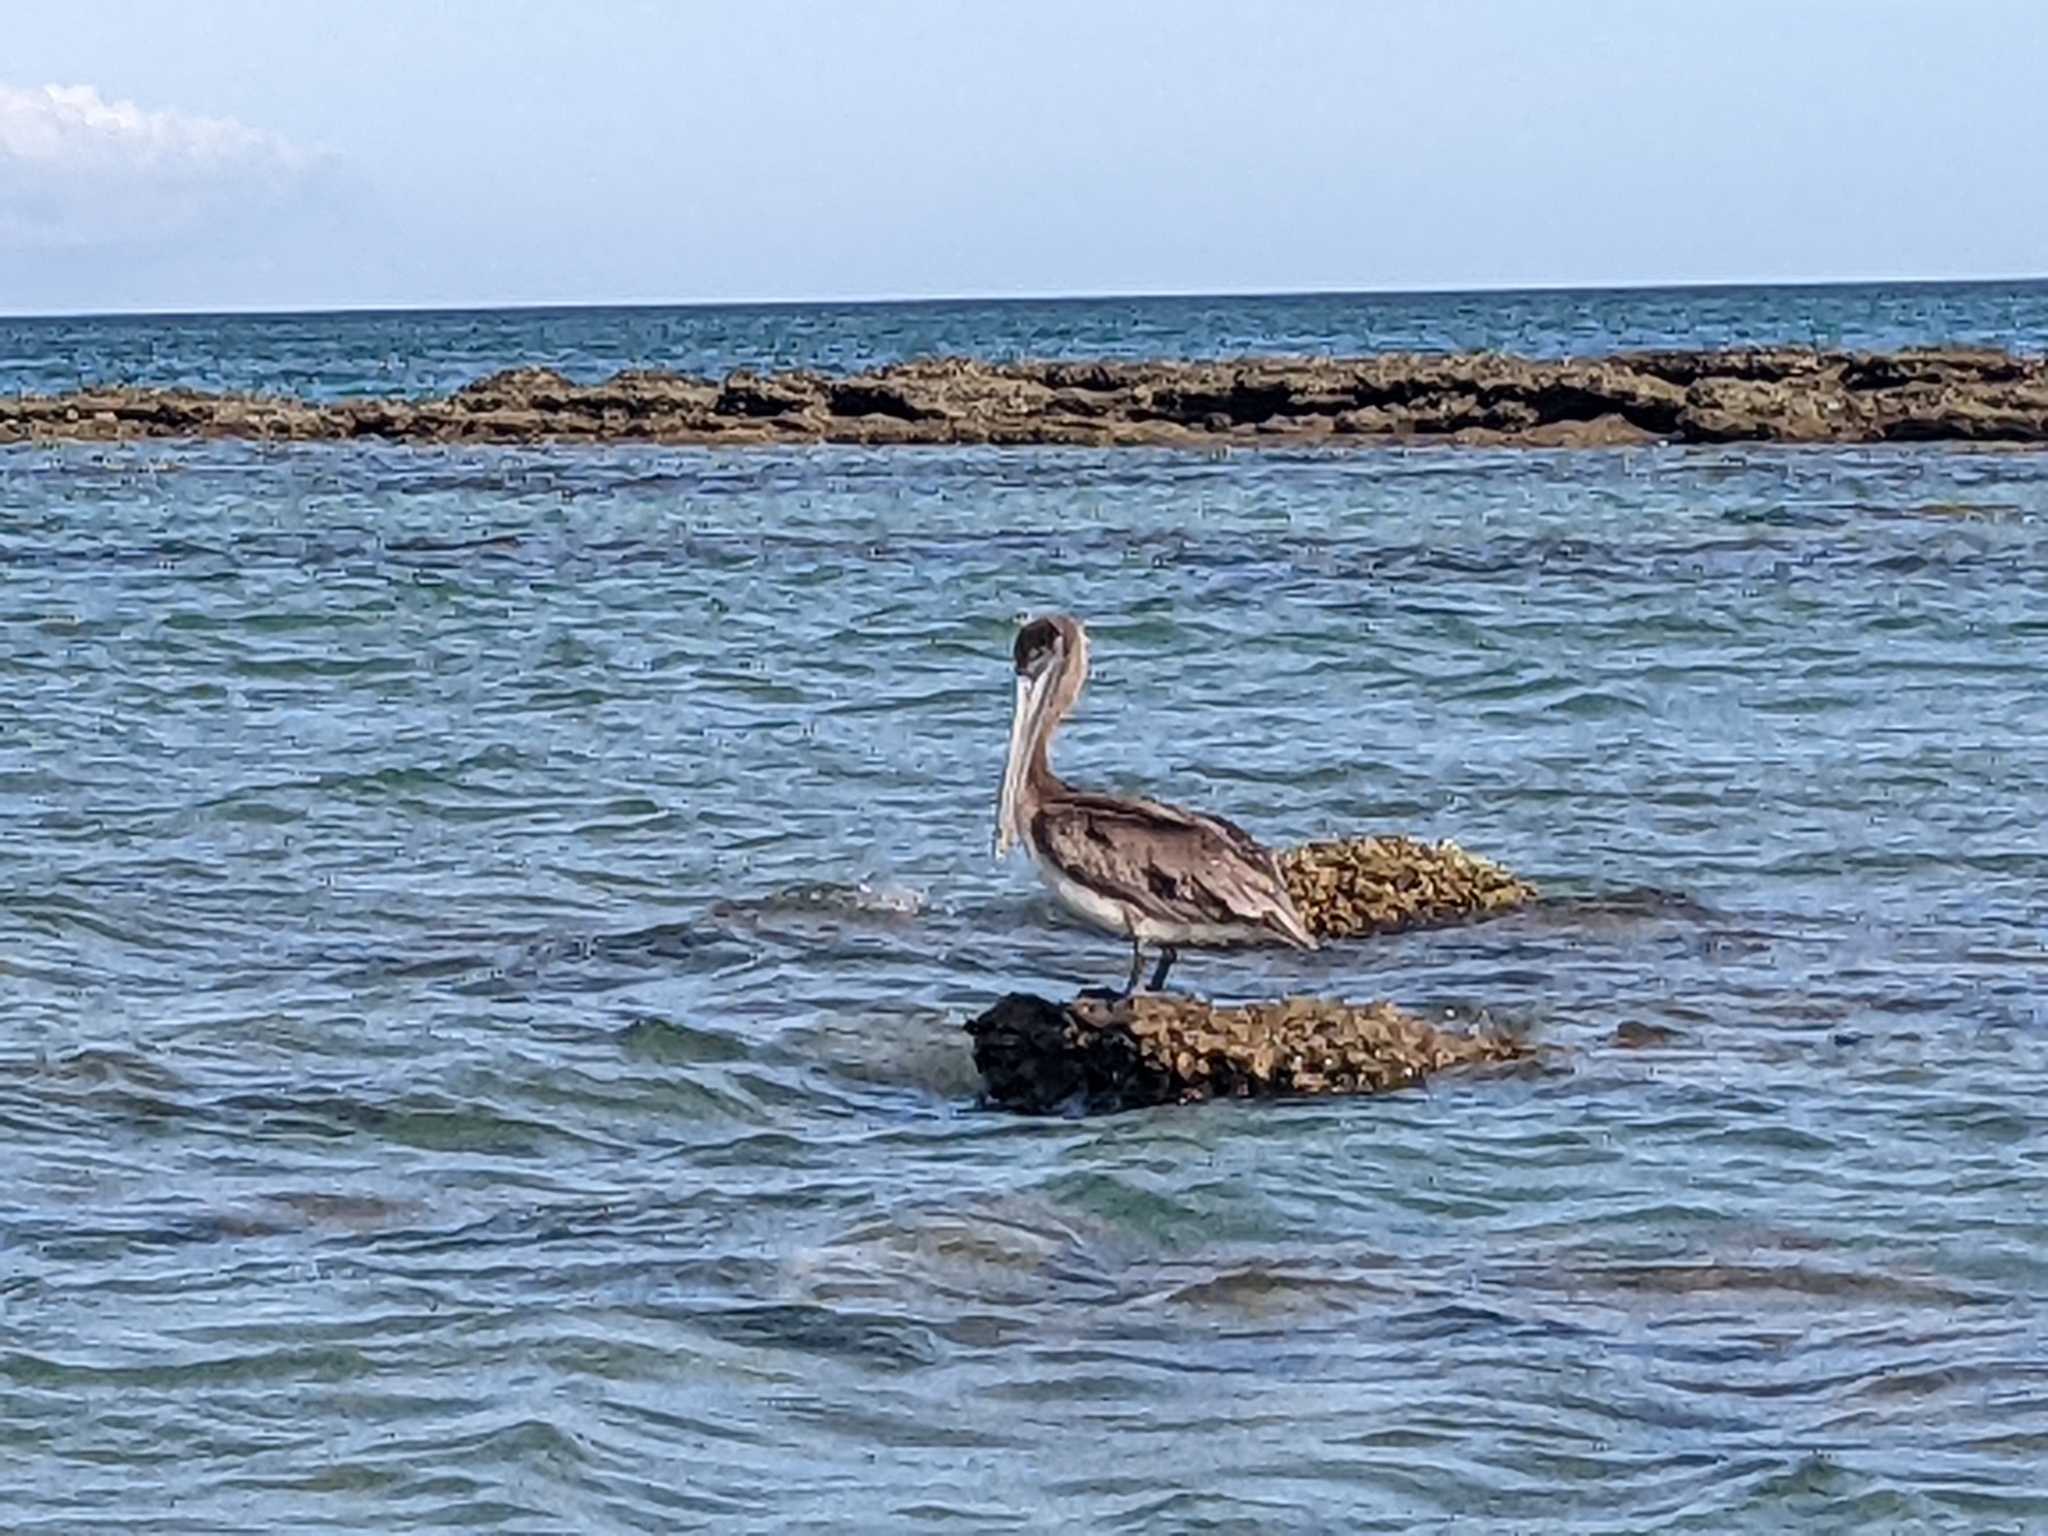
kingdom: Animalia
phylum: Chordata
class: Aves
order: Pelecaniformes
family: Pelecanidae
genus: Pelecanus
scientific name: Pelecanus occidentalis
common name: Brown pelican
